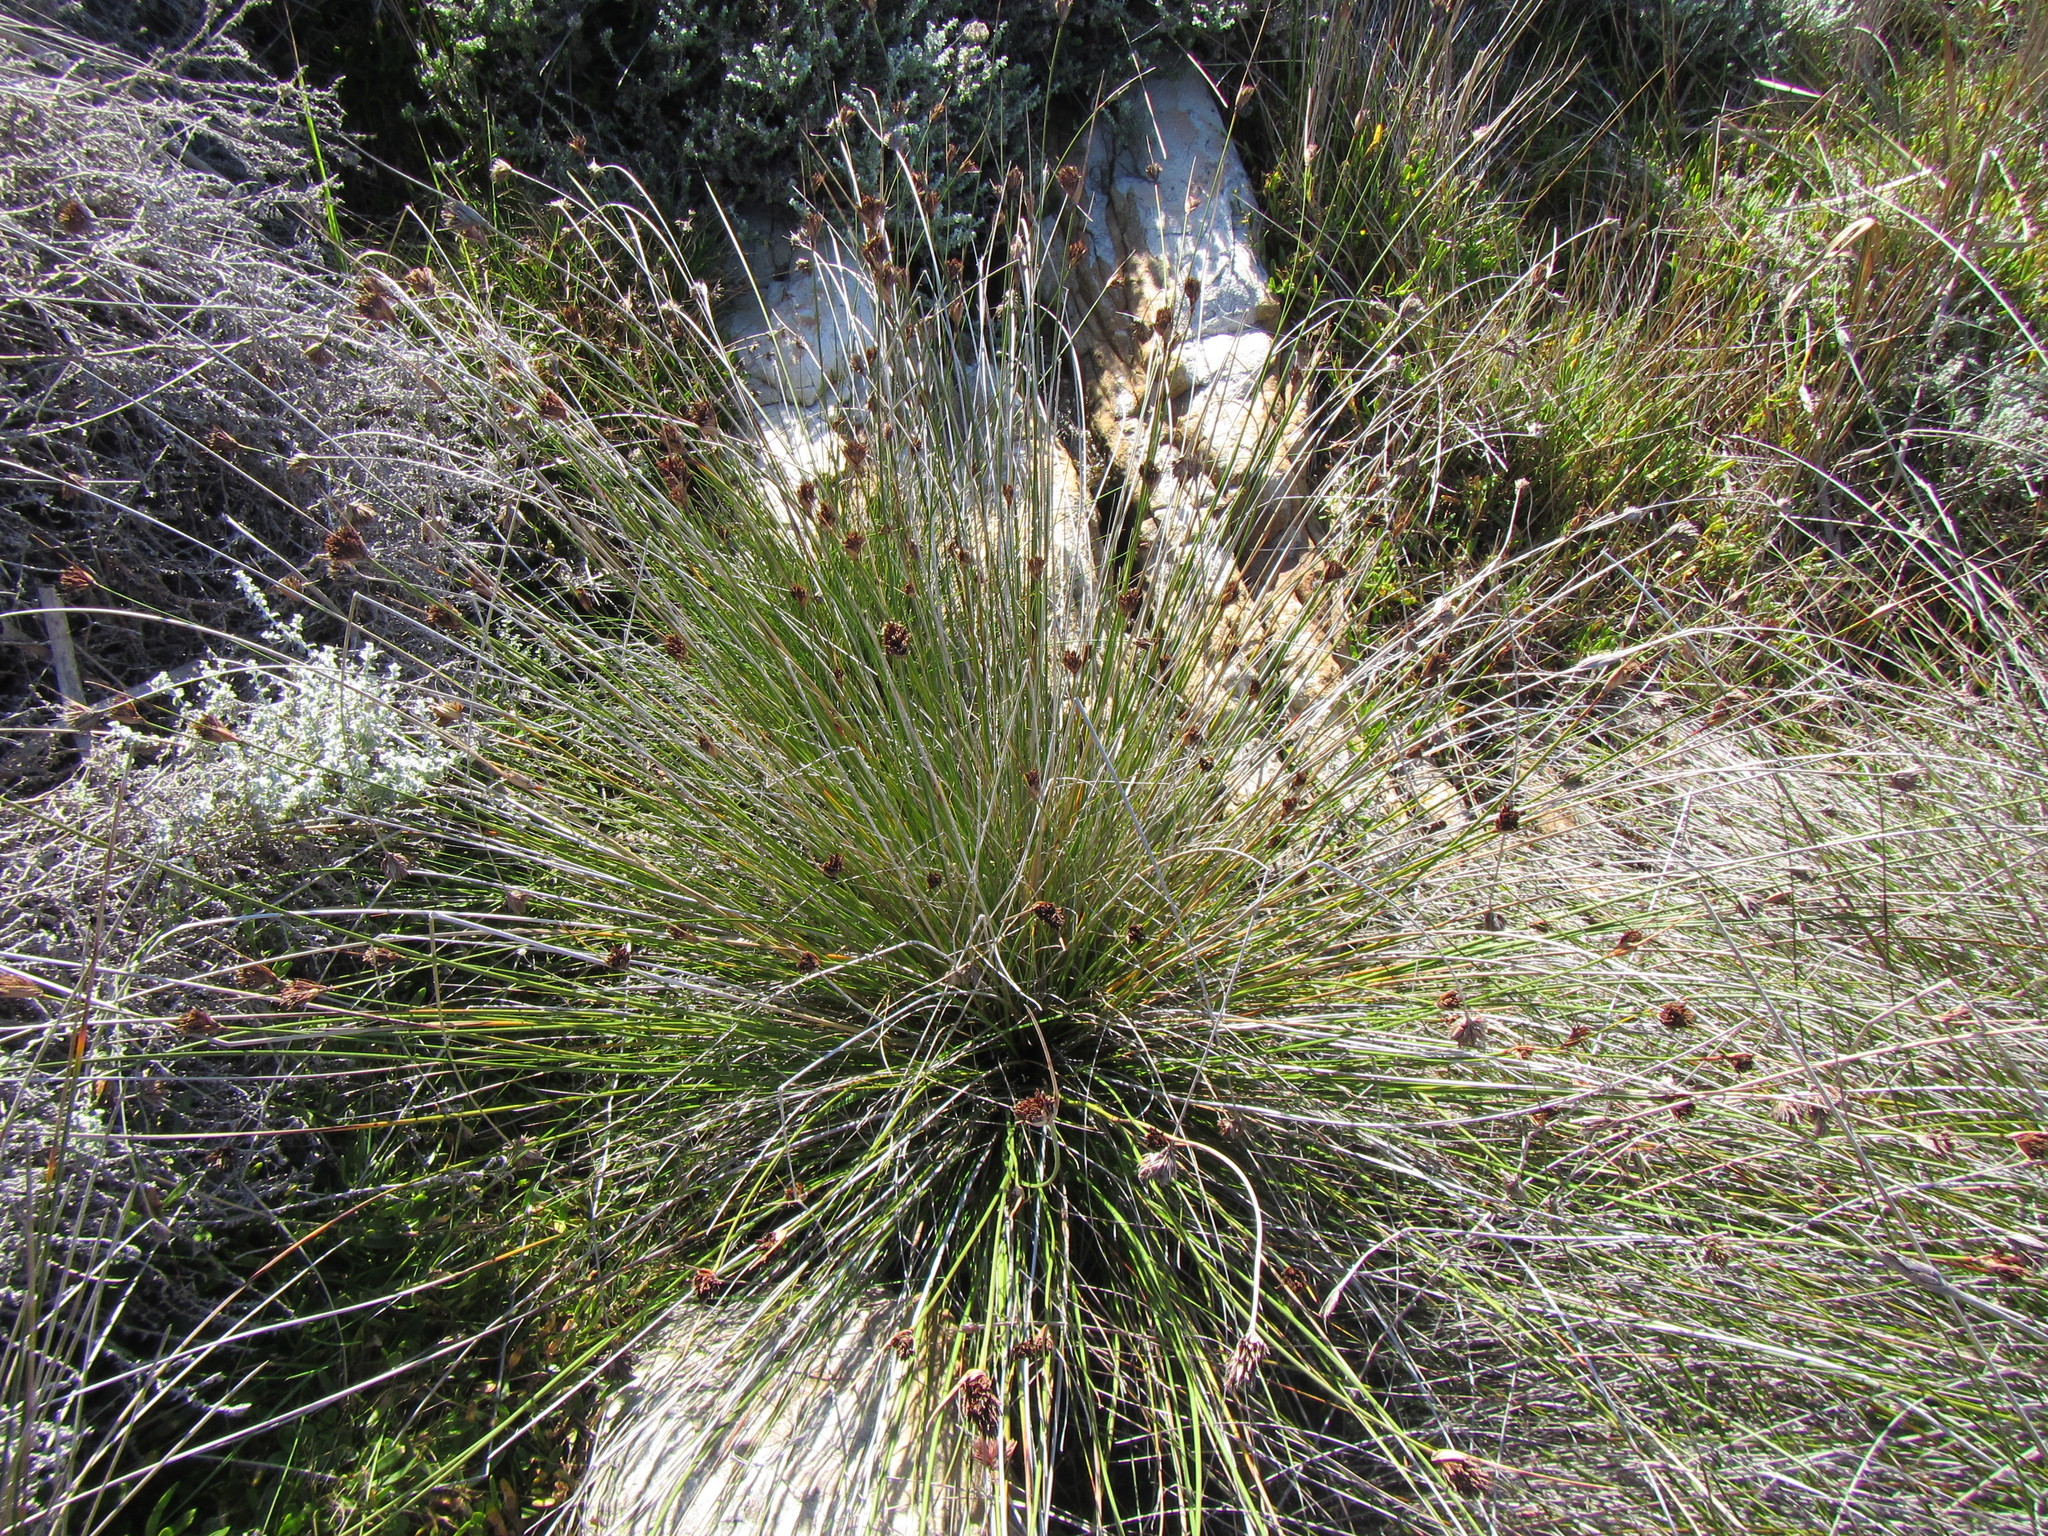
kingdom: Plantae
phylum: Tracheophyta
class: Liliopsida
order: Poales
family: Cyperaceae
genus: Schoenus
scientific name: Schoenus nigricans
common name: Black bog-rush
